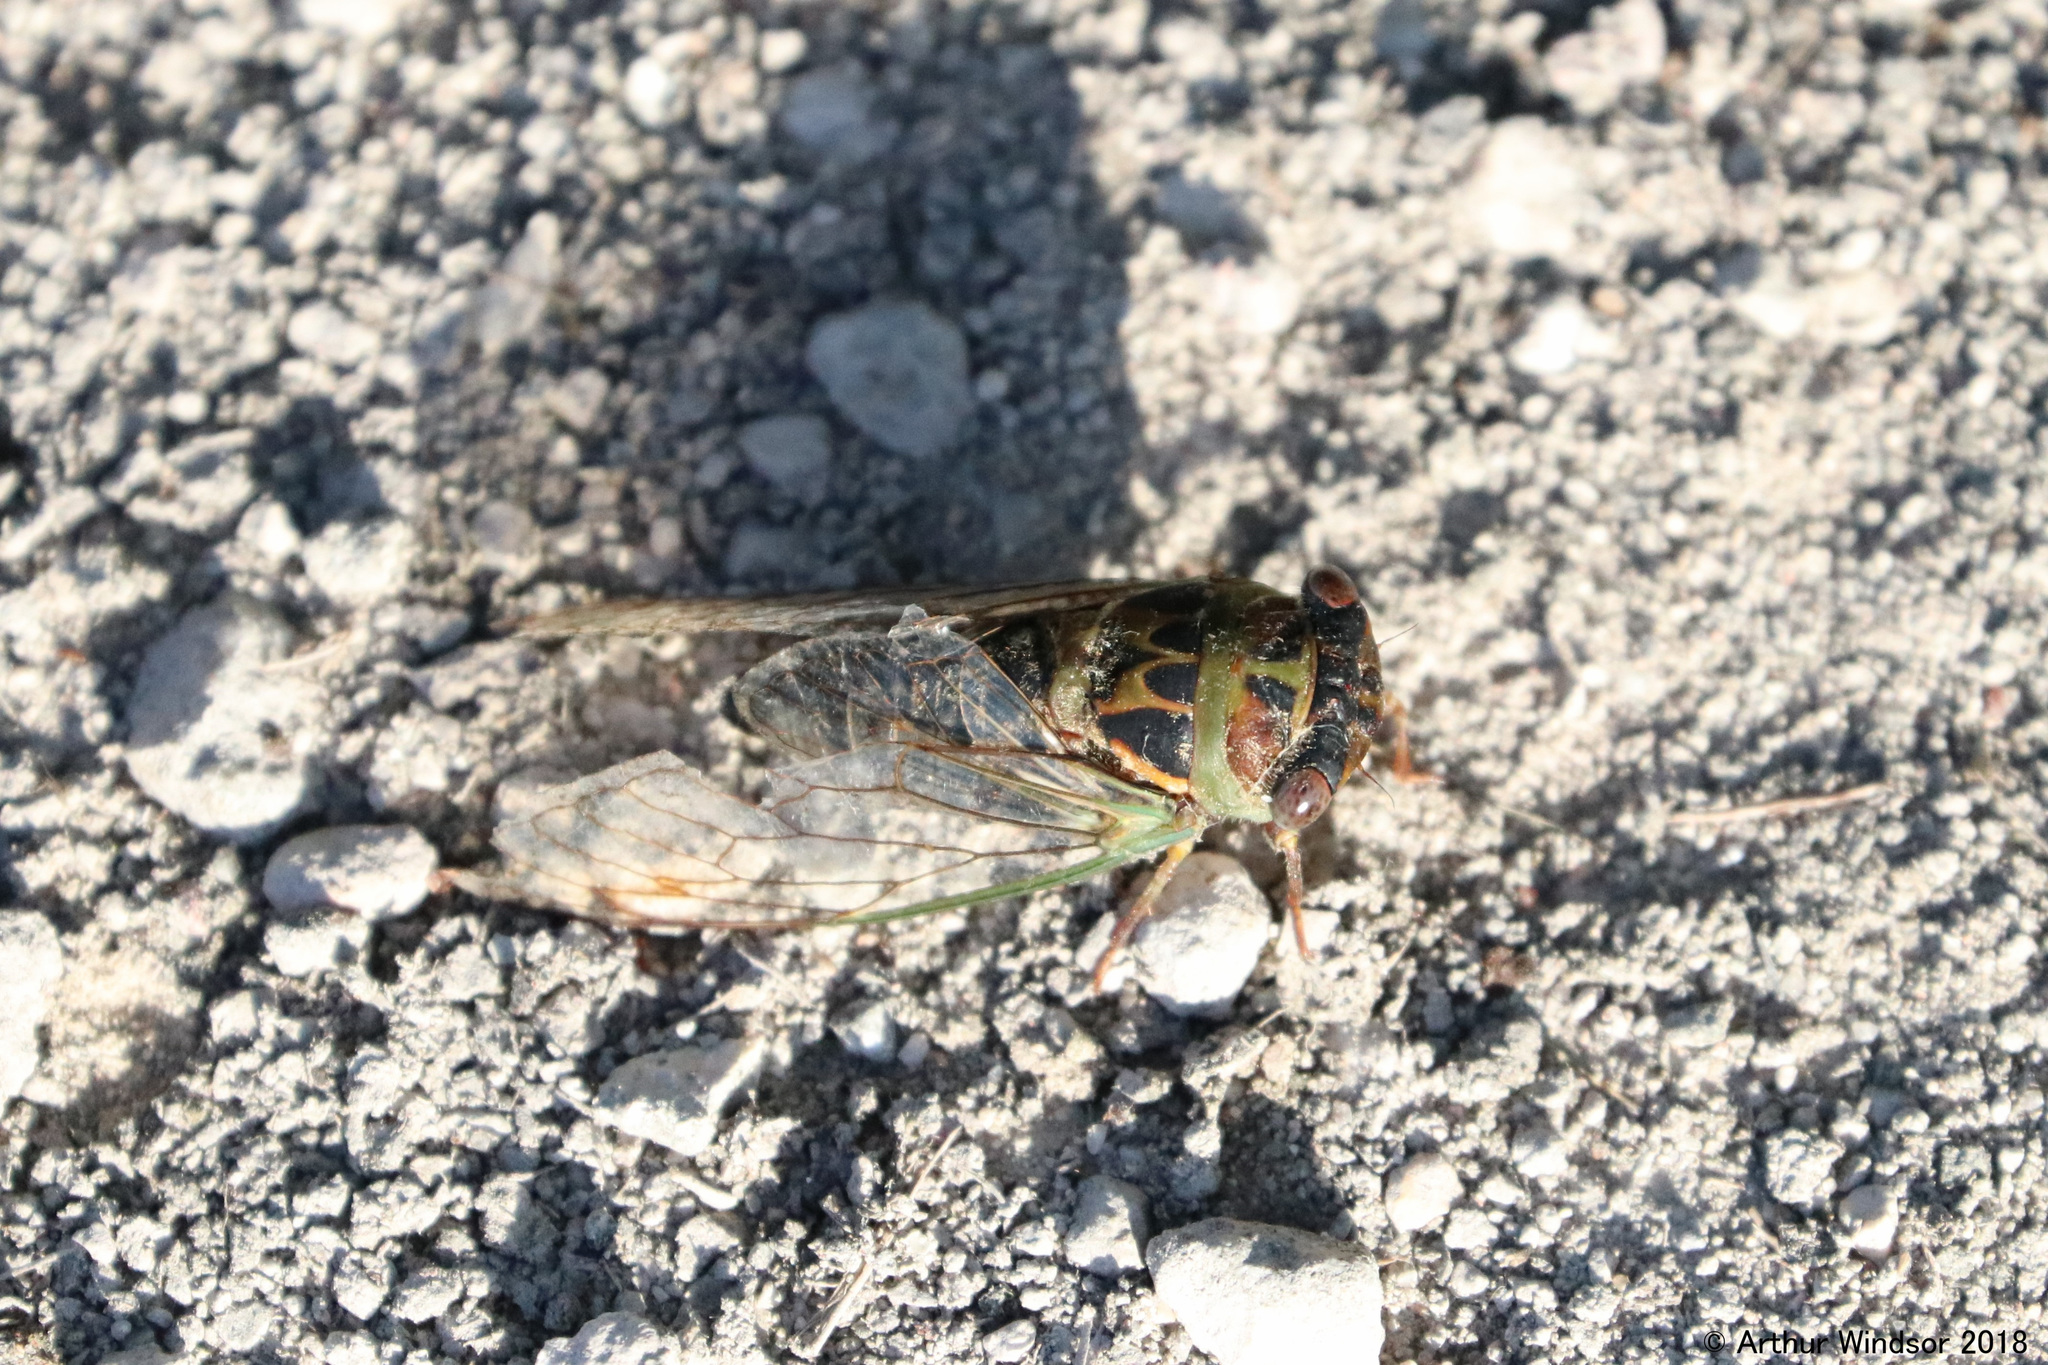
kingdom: Animalia
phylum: Arthropoda
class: Insecta
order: Hemiptera
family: Cicadidae
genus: Neotibicen
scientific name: Neotibicen davisi
